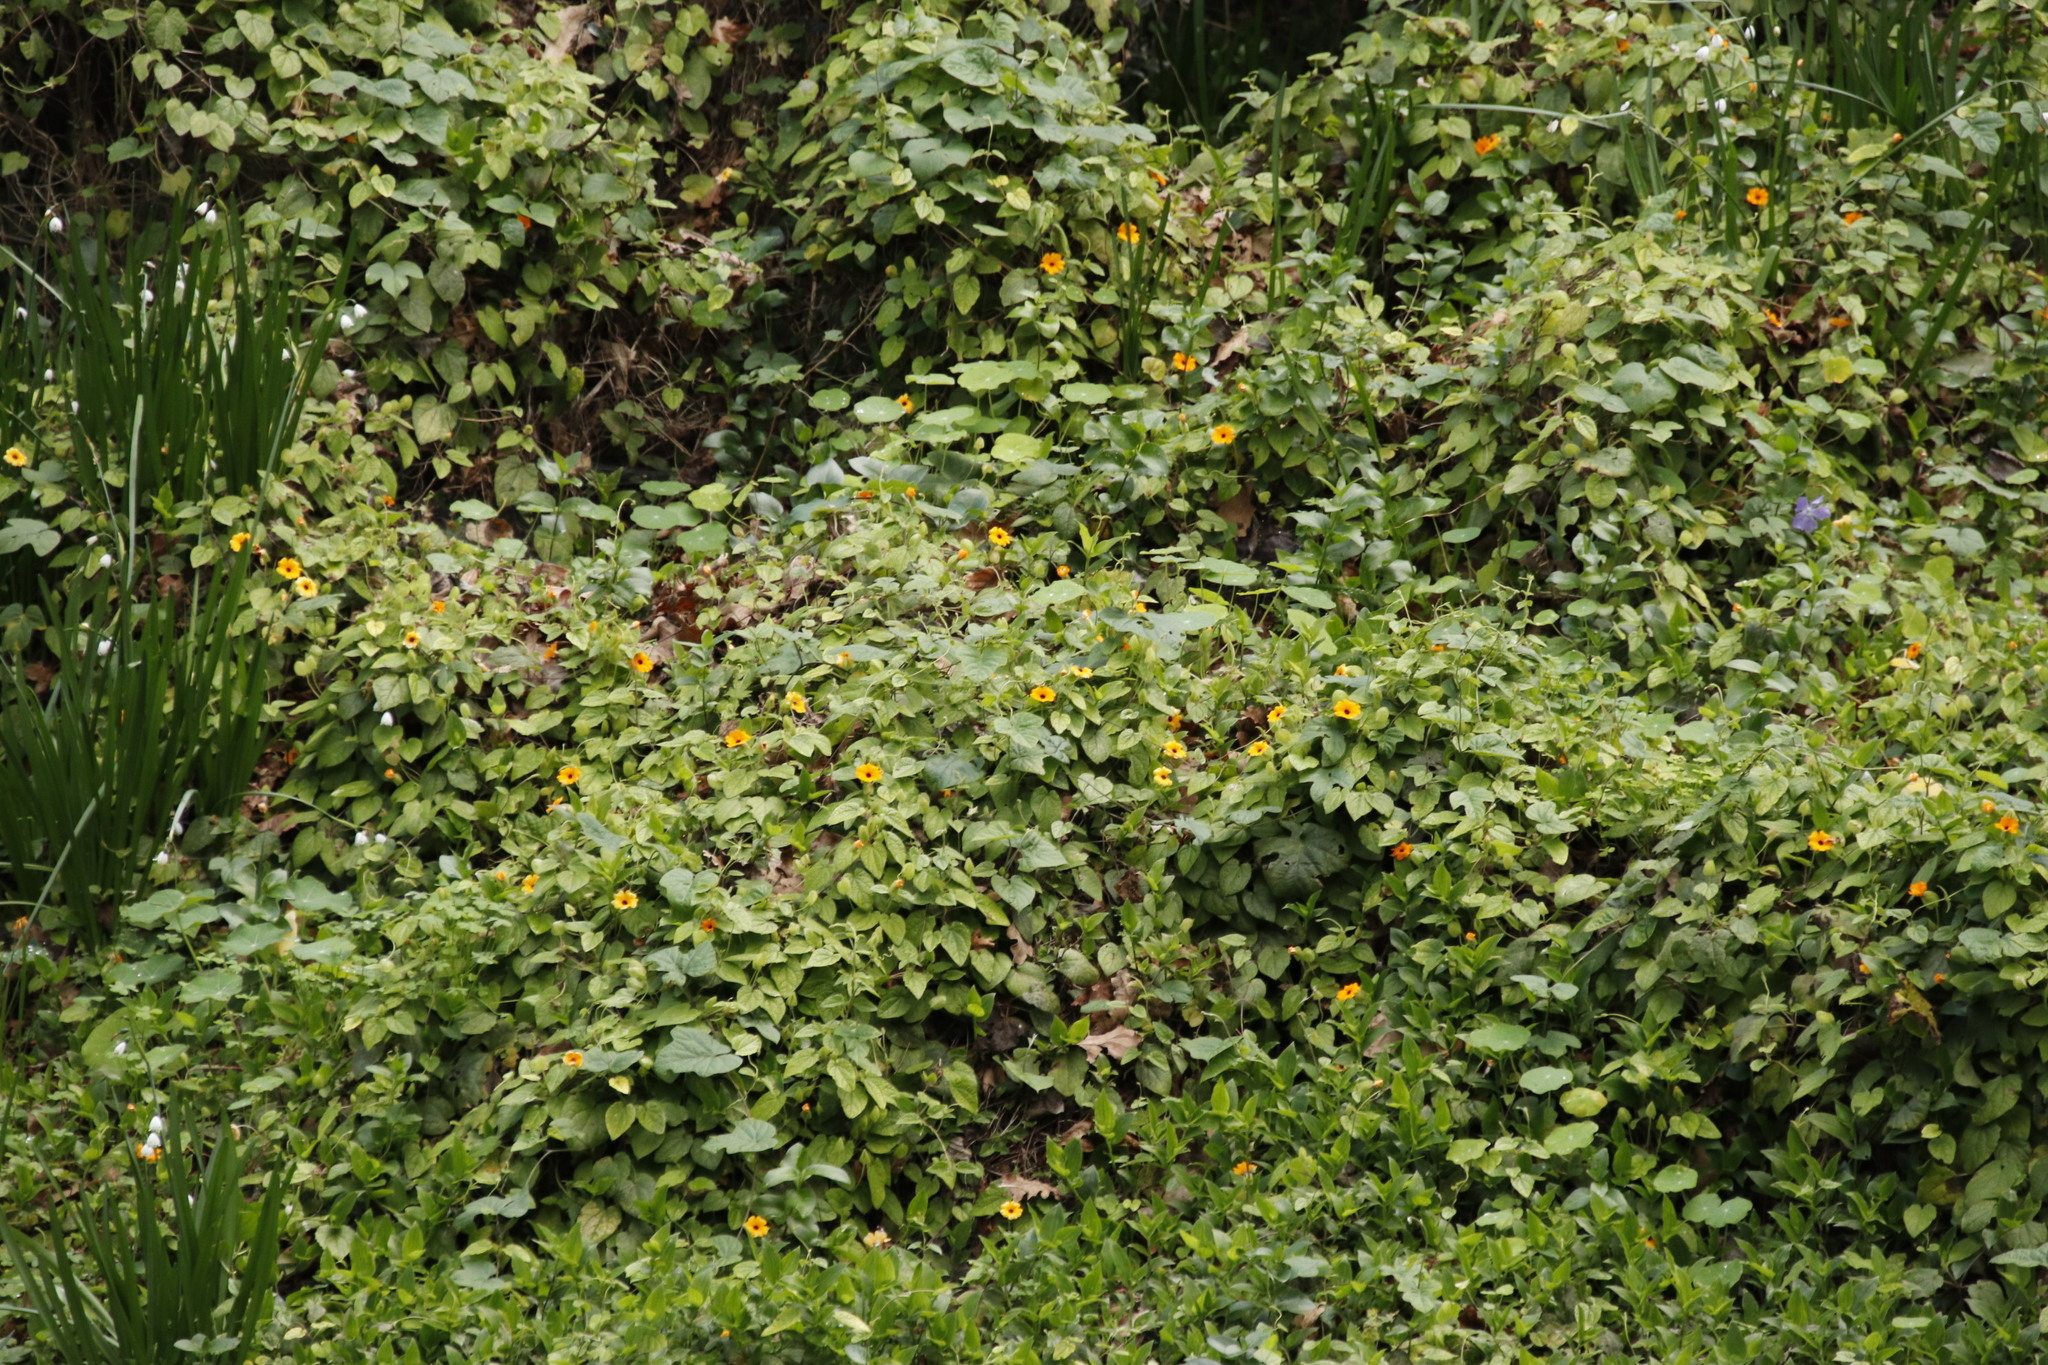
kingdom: Plantae
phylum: Tracheophyta
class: Magnoliopsida
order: Lamiales
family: Acanthaceae
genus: Thunbergia
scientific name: Thunbergia alata
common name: Blackeyed susan vine
